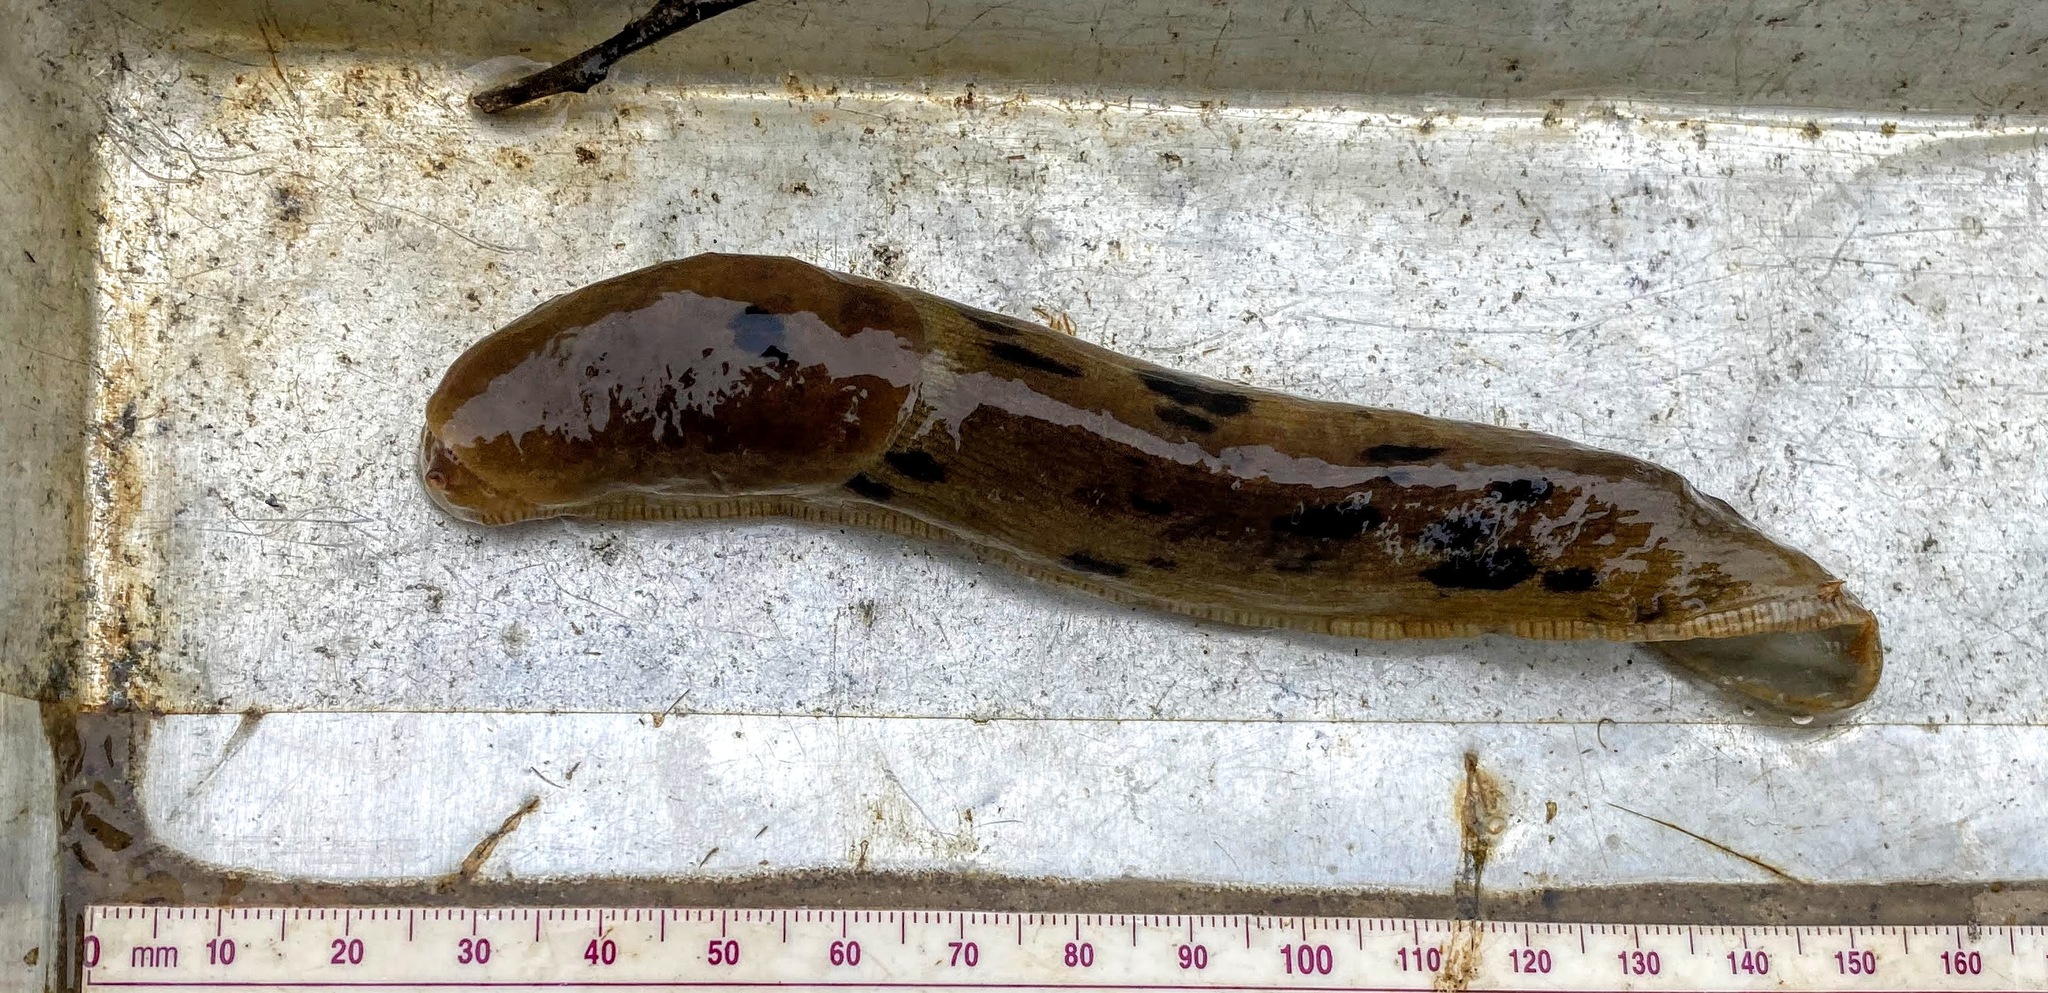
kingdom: Animalia
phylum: Mollusca
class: Gastropoda
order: Stylommatophora
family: Ariolimacidae
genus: Ariolimax
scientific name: Ariolimax columbianus
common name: Pacific banana slug
